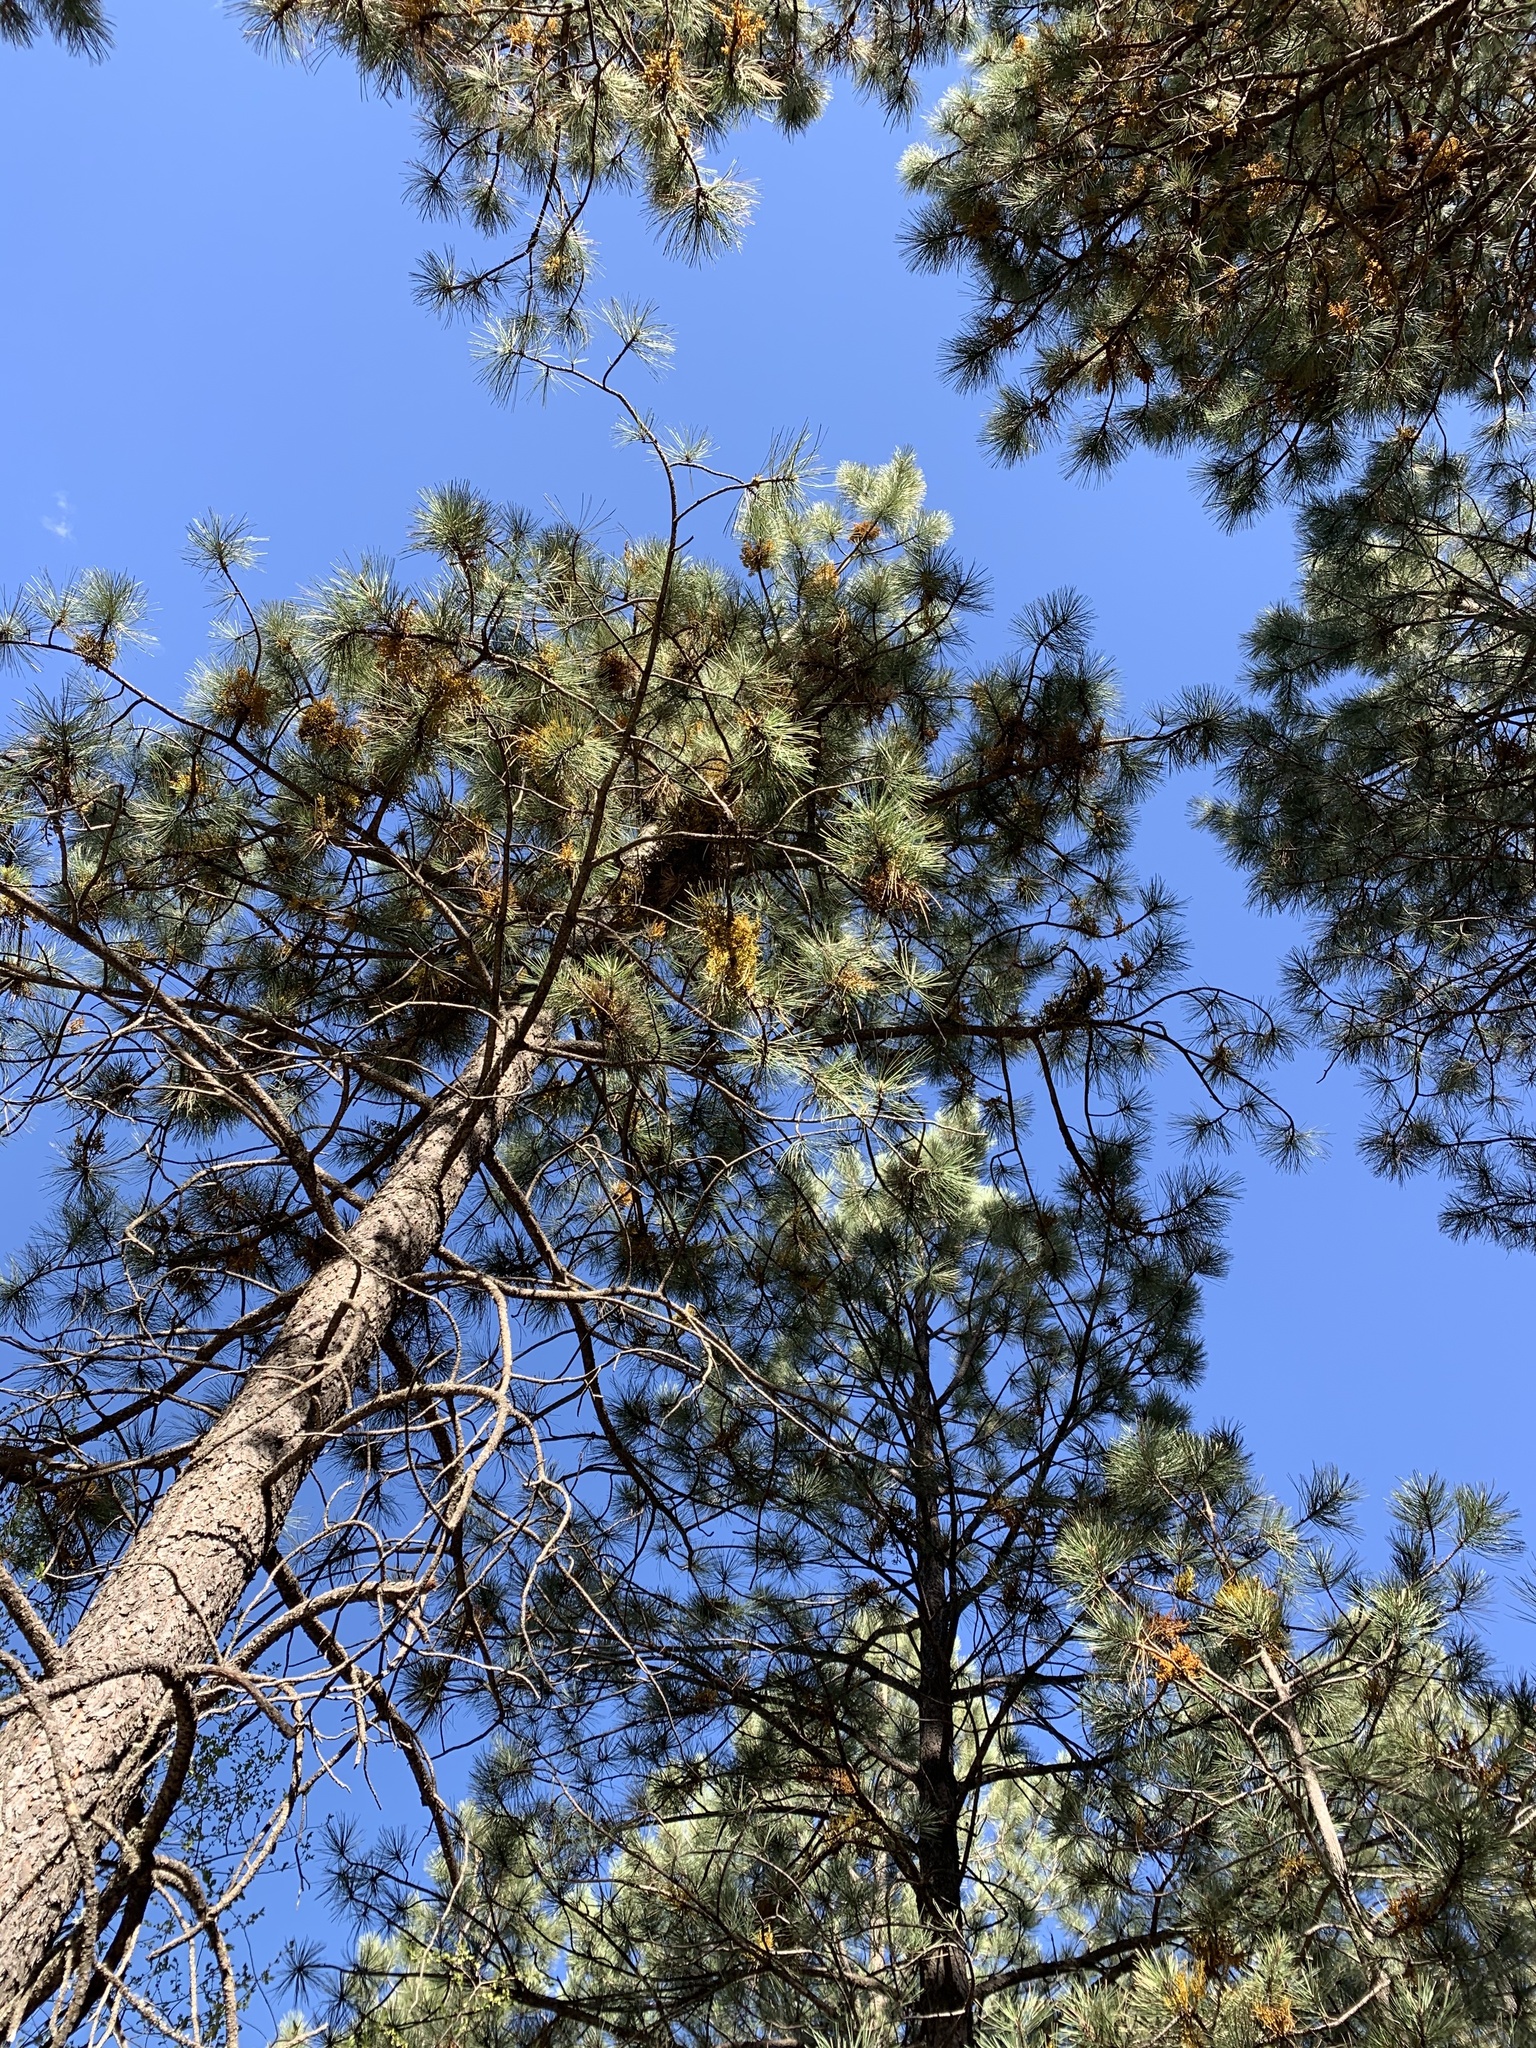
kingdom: Plantae
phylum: Tracheophyta
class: Pinopsida
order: Pinales
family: Pinaceae
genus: Pinus
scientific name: Pinus ponderosa
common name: Western yellow-pine
